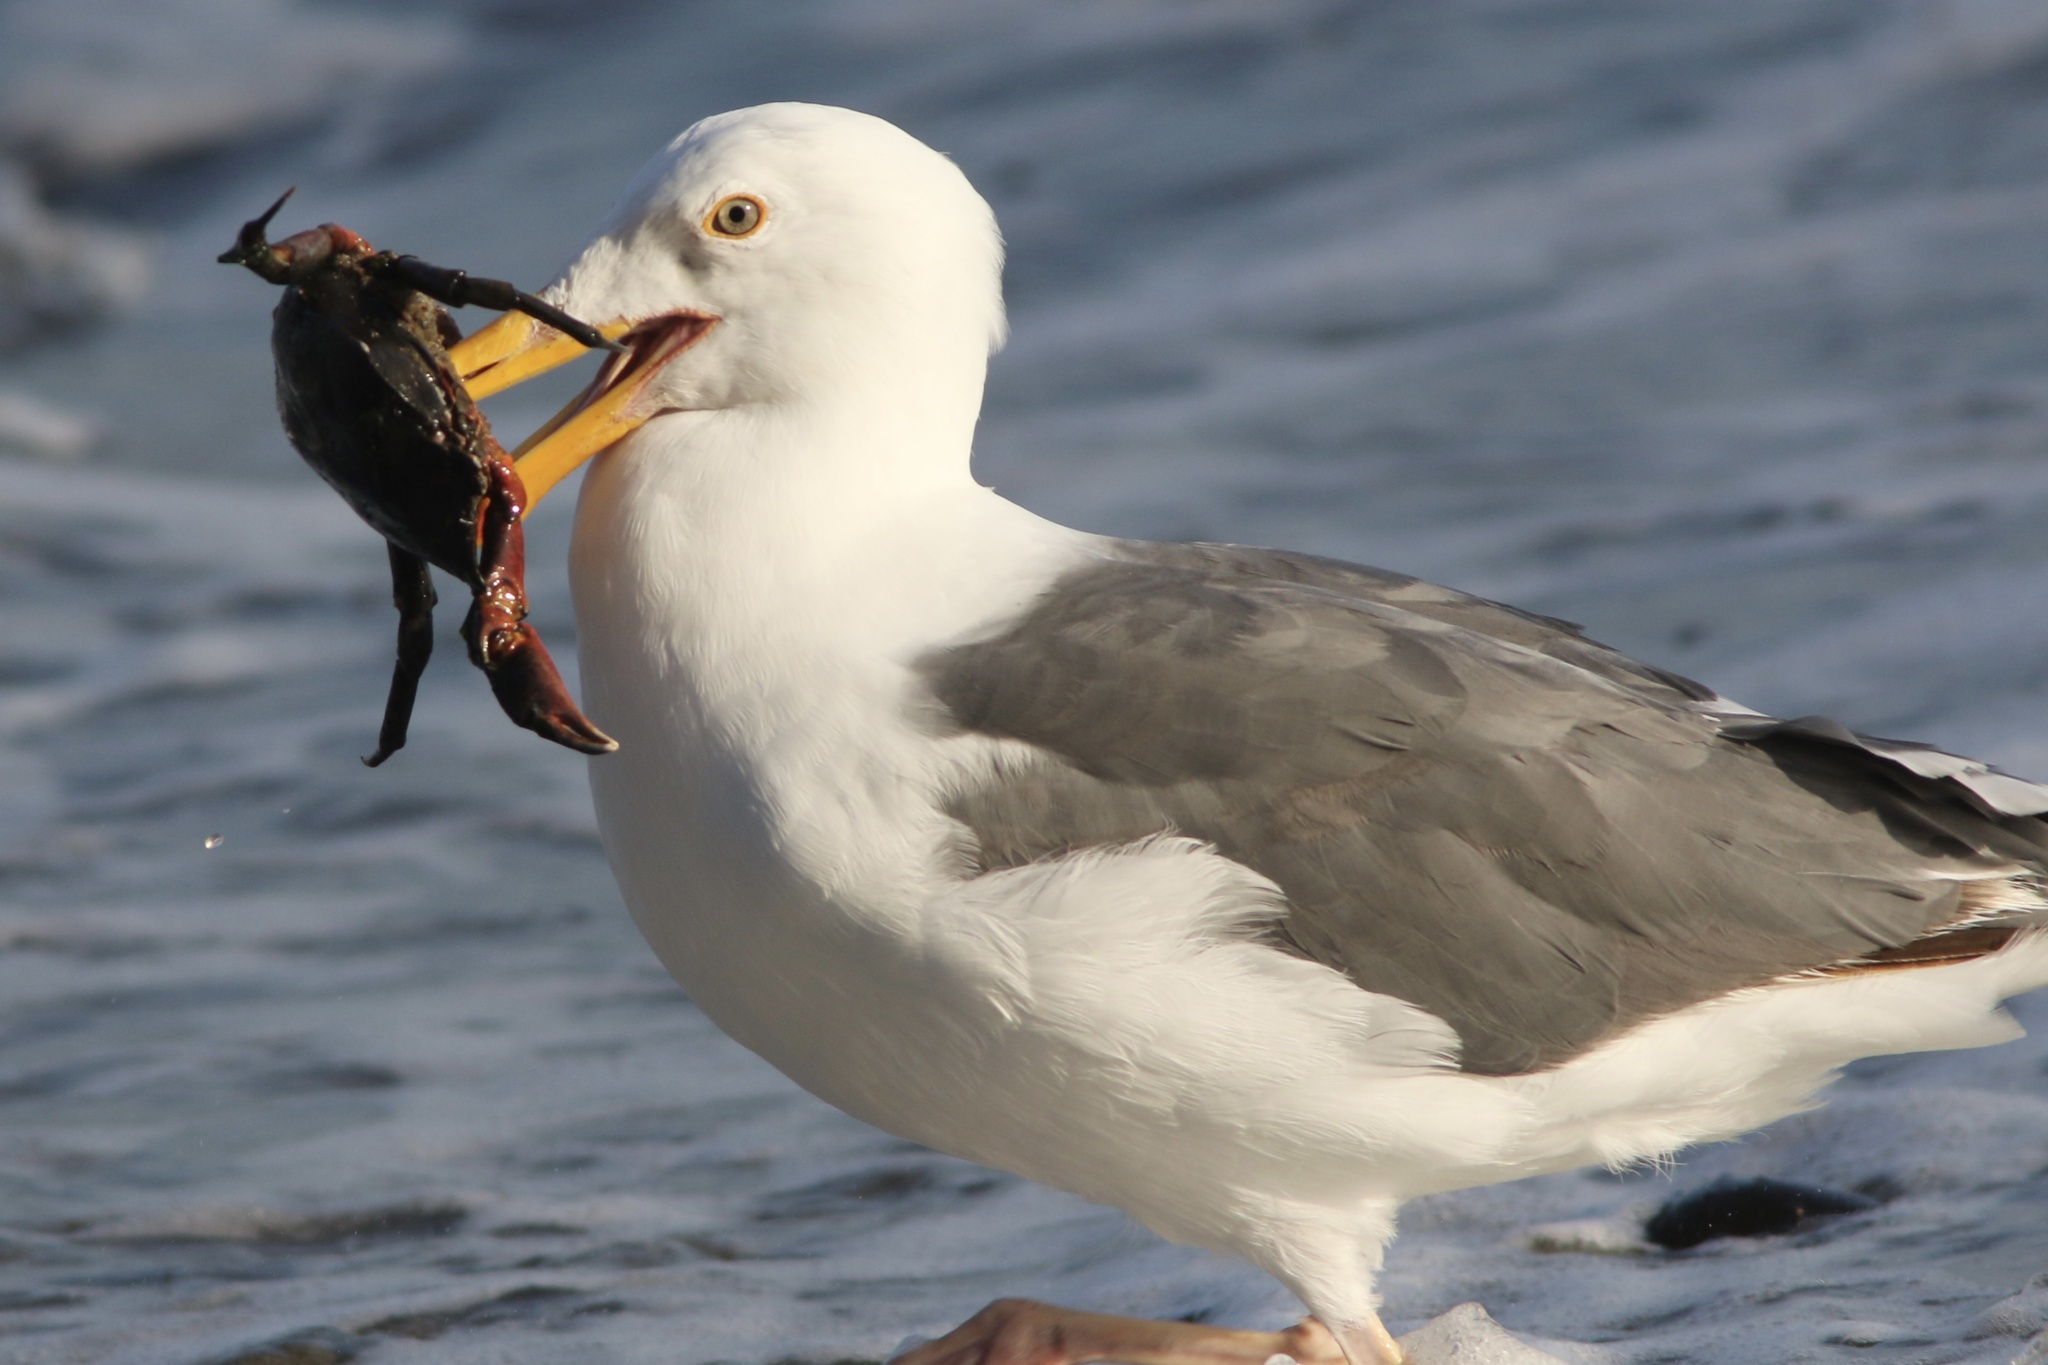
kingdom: Animalia
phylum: Chordata
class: Aves
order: Charadriiformes
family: Laridae
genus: Larus
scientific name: Larus occidentalis
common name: Western gull
